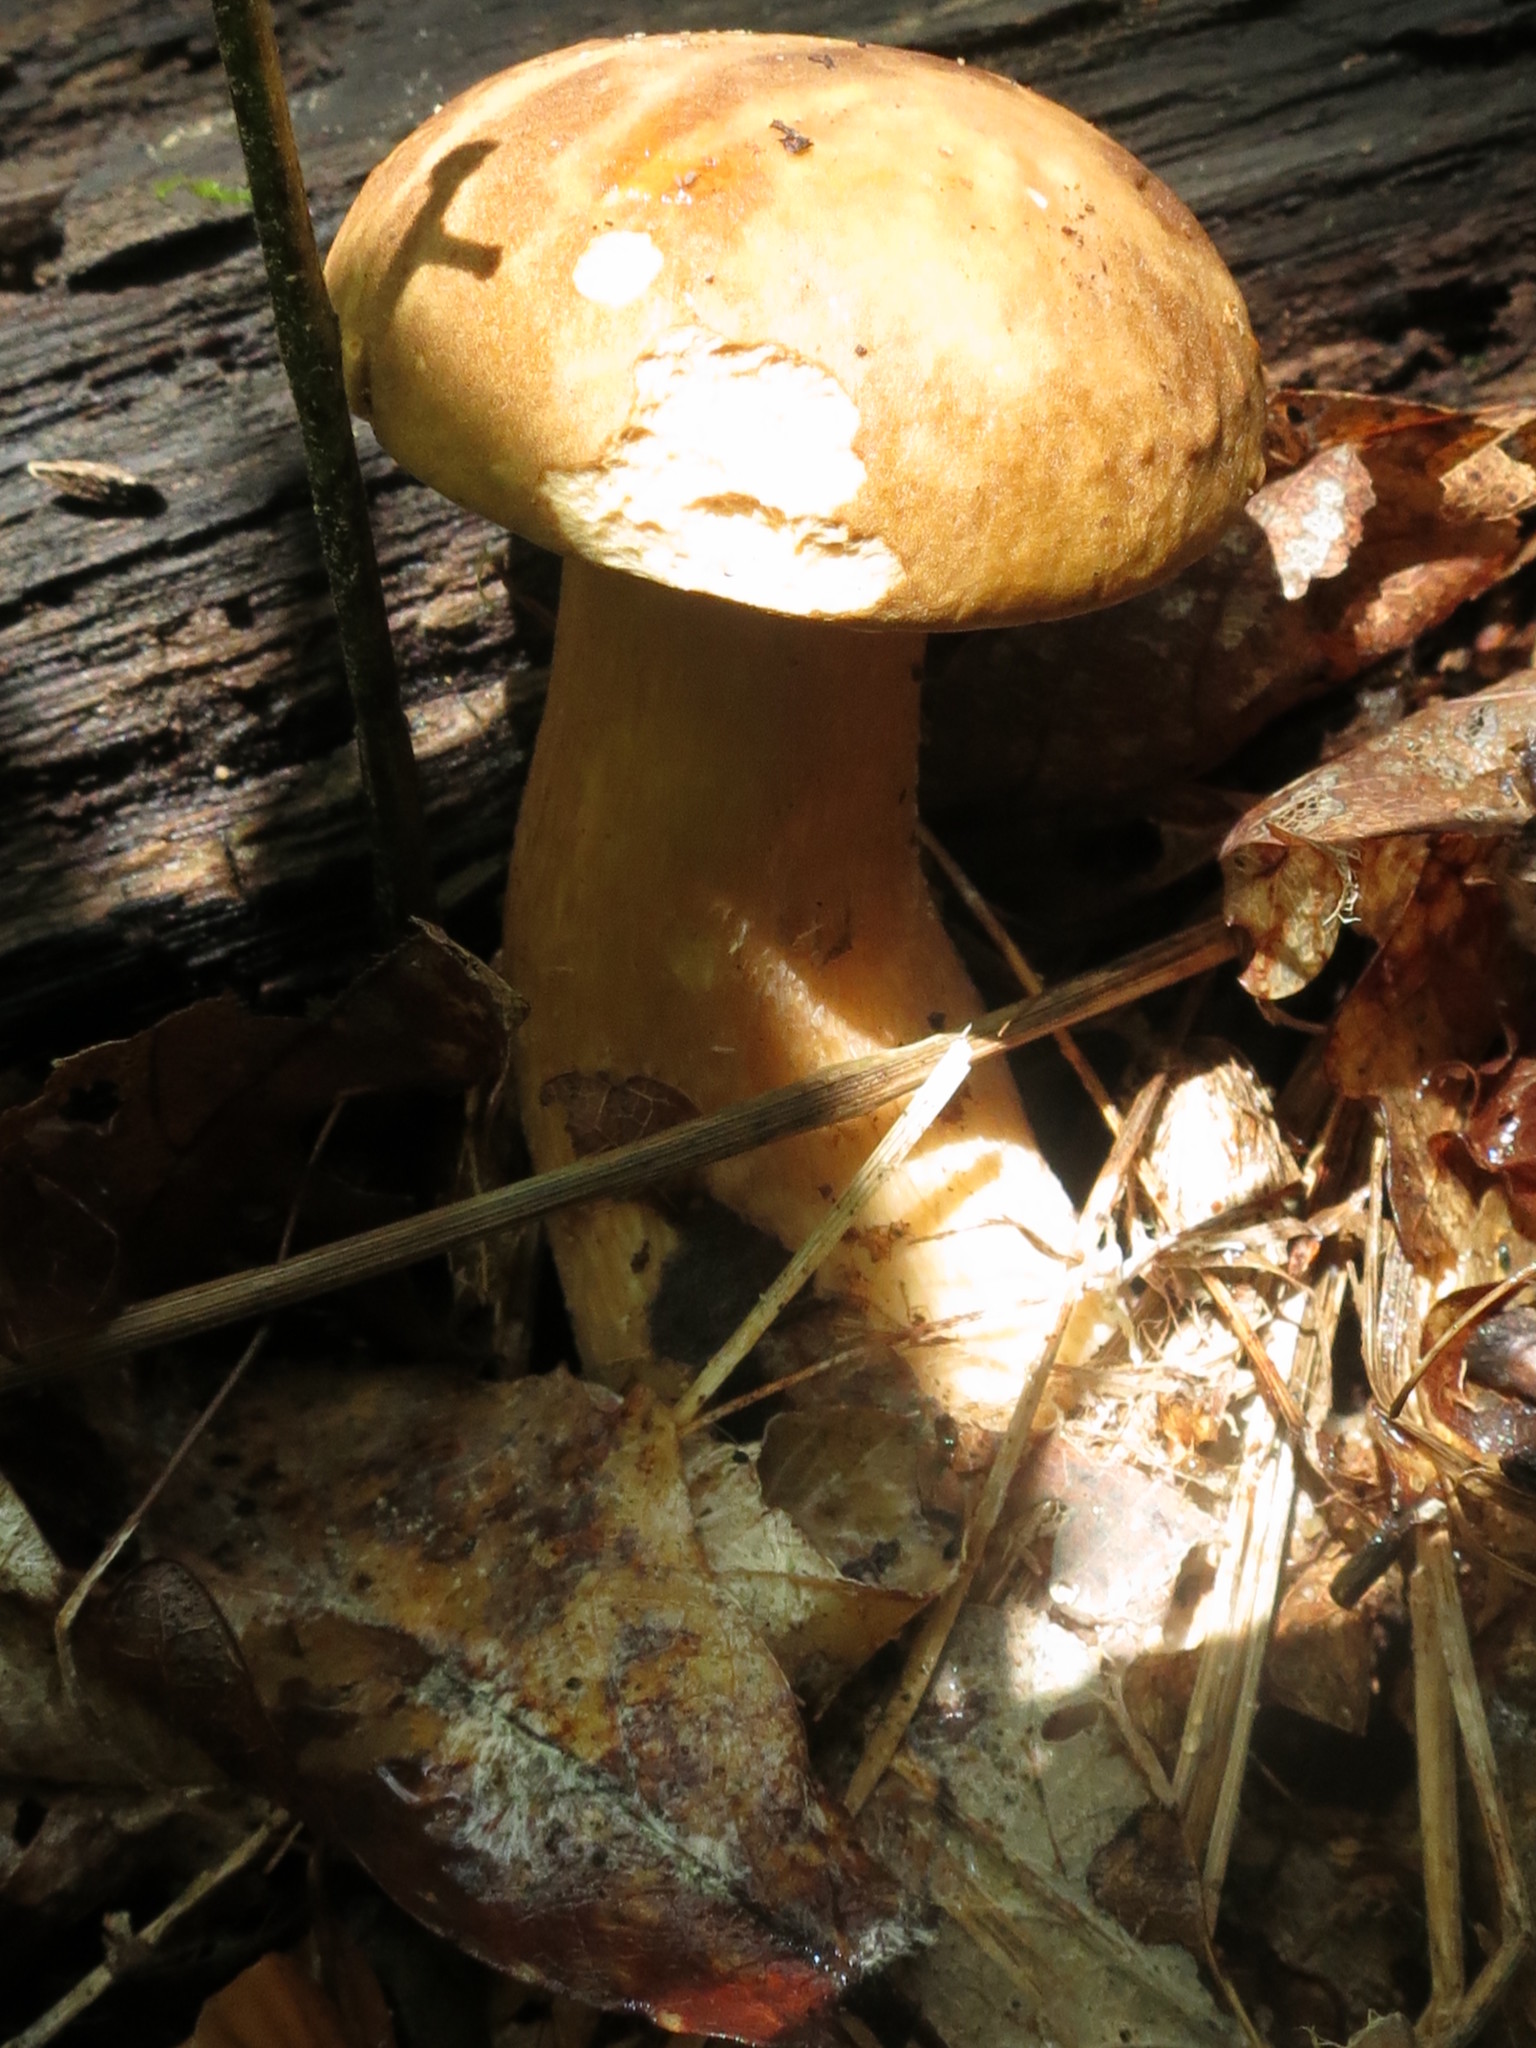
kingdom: Fungi
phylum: Basidiomycota
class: Agaricomycetes
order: Boletales
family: Boletaceae
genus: Boletus
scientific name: Boletus reticulatus
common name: Summer bolete
